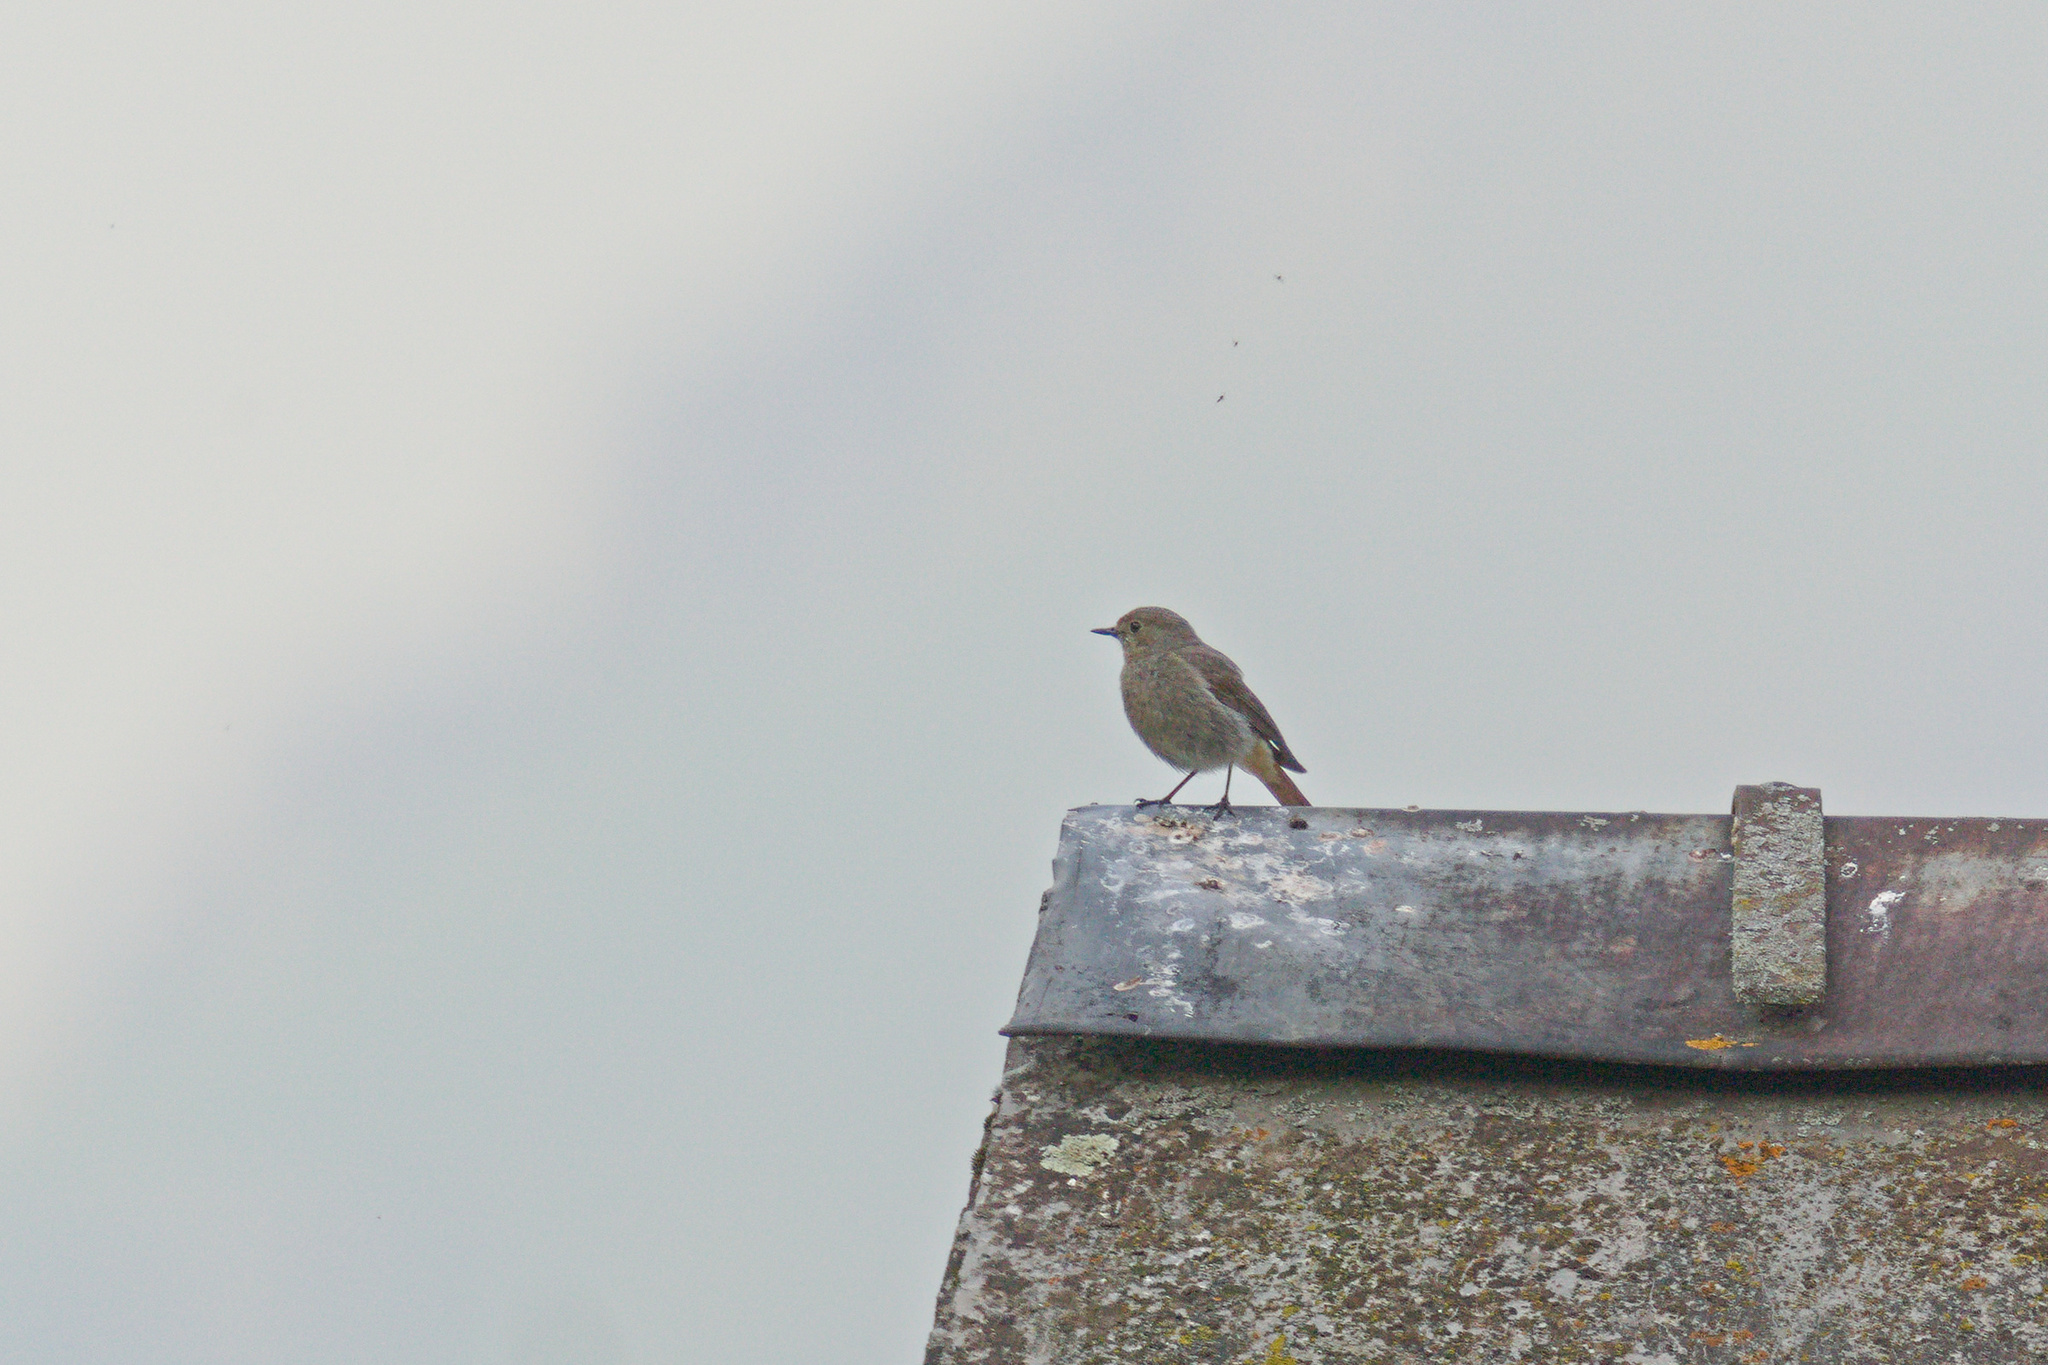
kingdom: Animalia
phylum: Chordata
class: Aves
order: Passeriformes
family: Muscicapidae
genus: Phoenicurus
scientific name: Phoenicurus ochruros
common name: Black redstart
